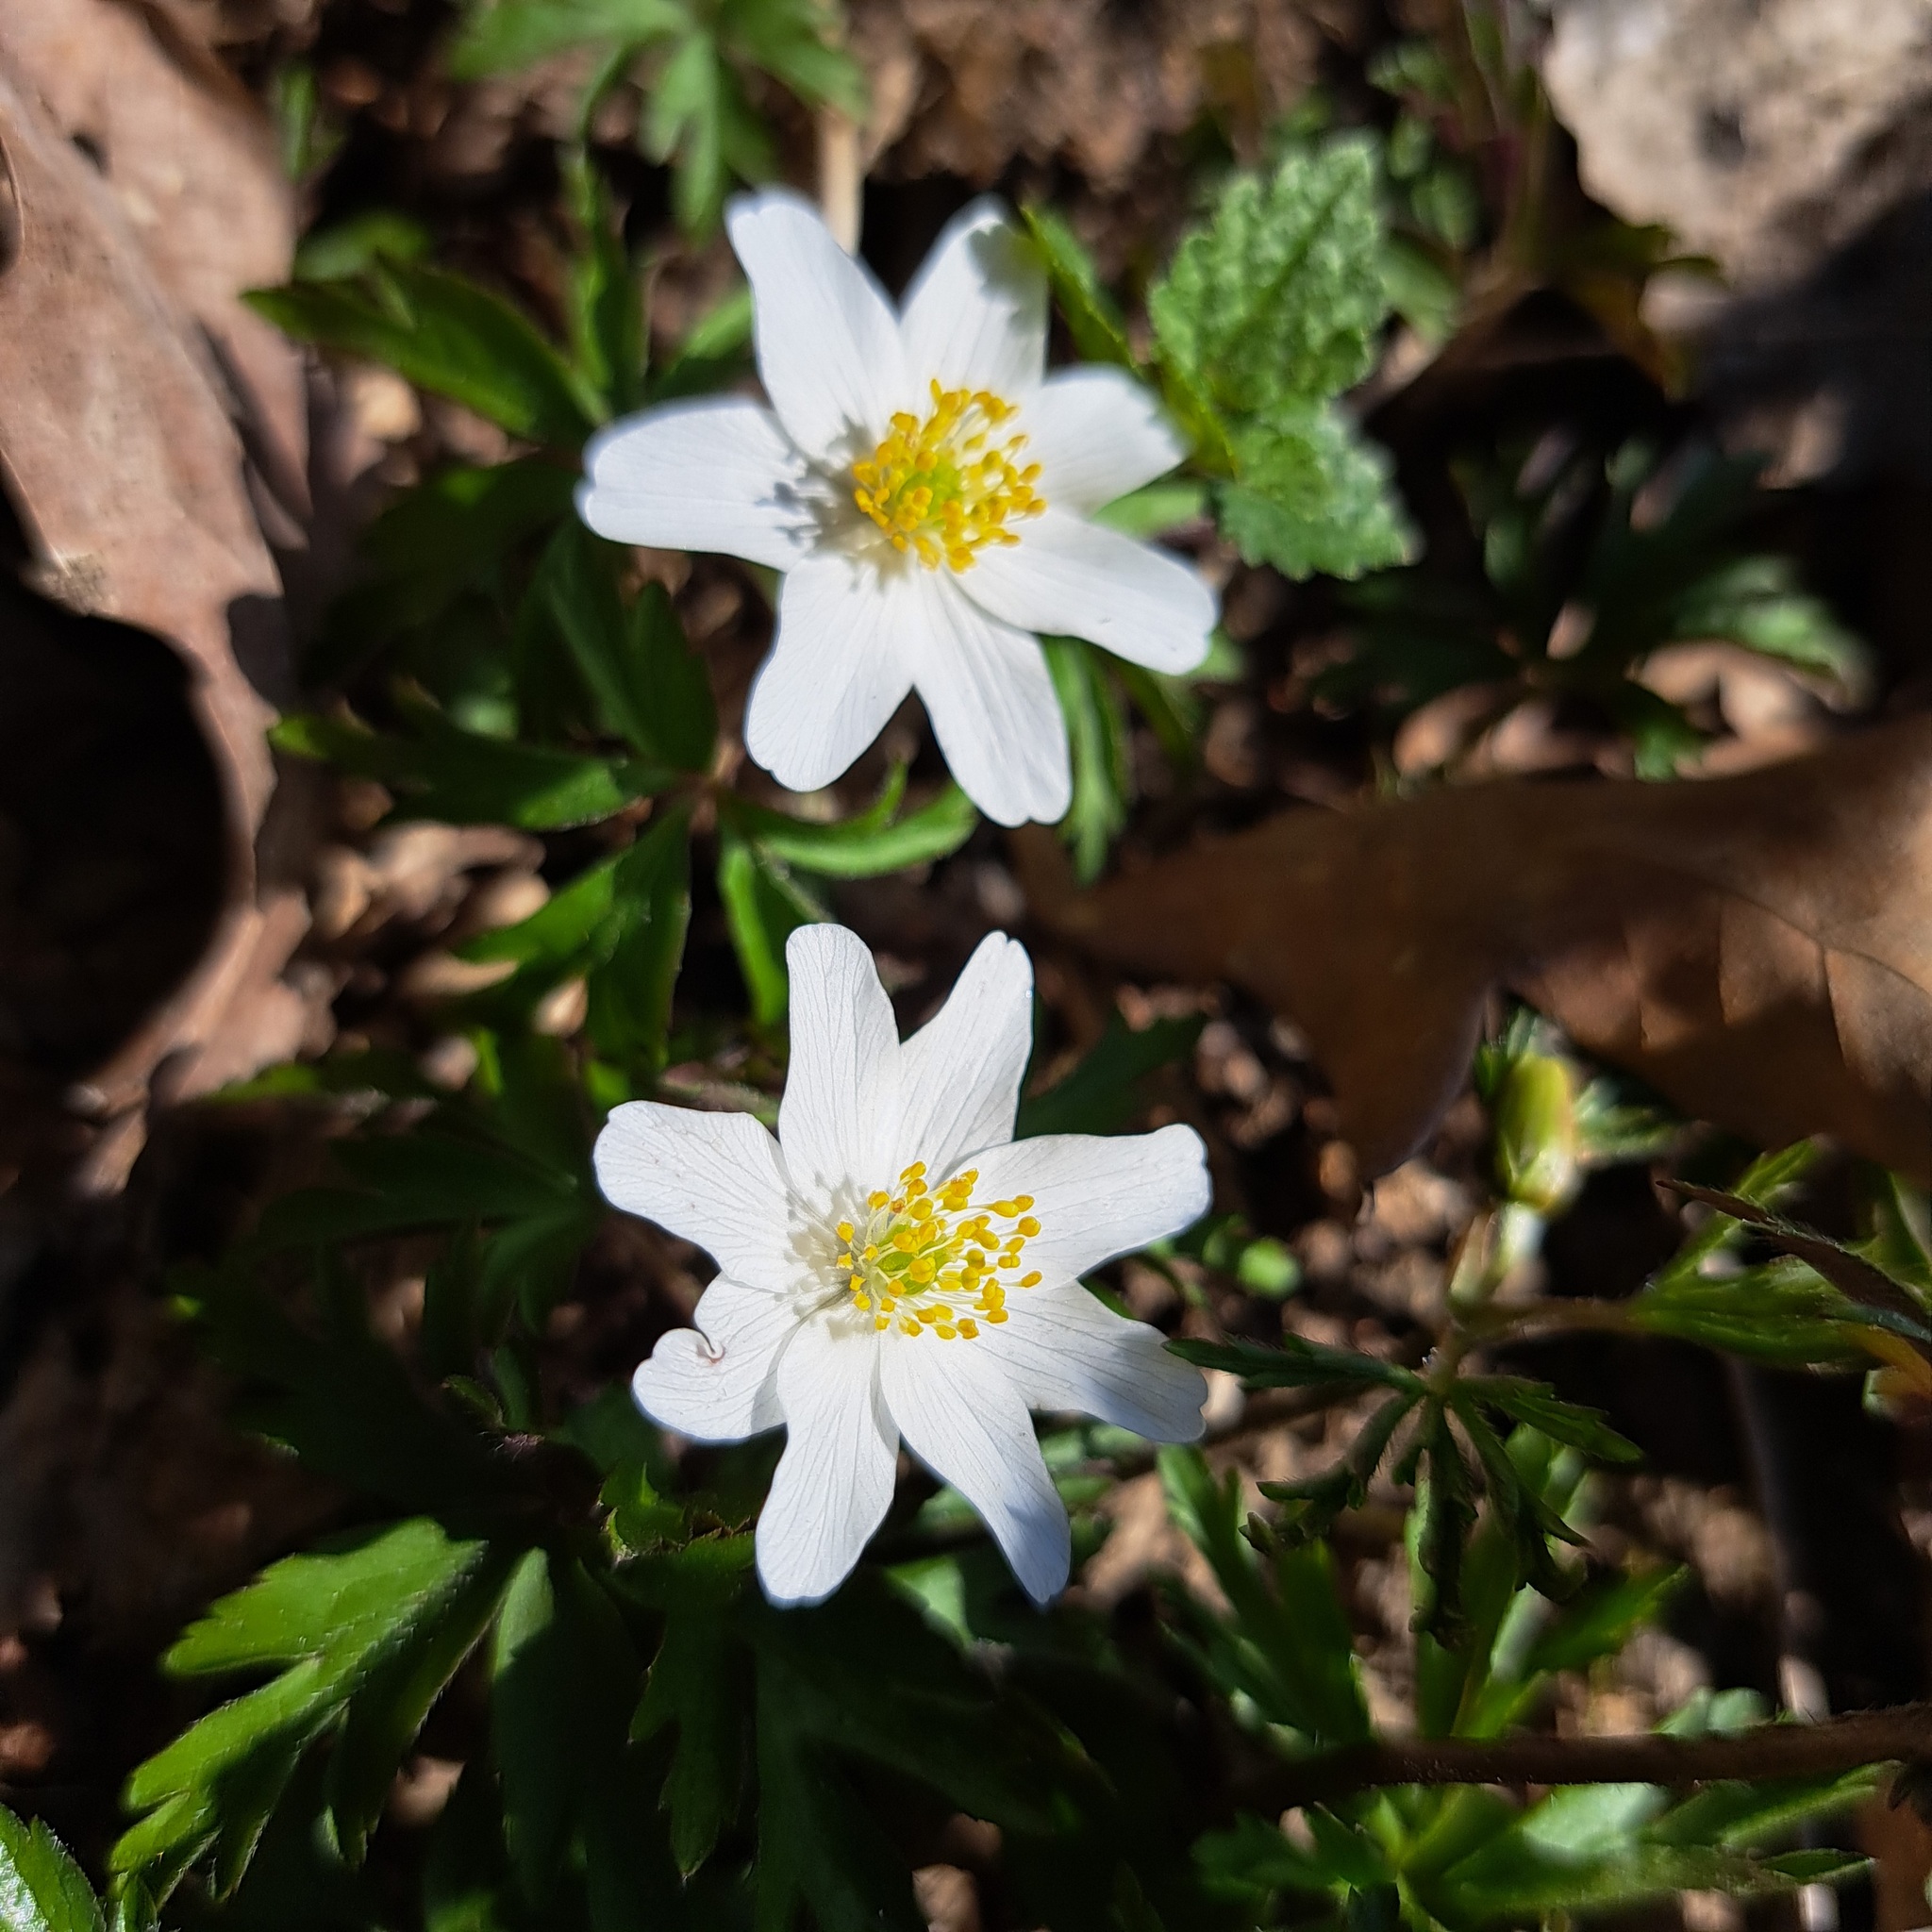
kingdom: Plantae
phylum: Tracheophyta
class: Magnoliopsida
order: Ranunculales
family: Ranunculaceae
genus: Anemone
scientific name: Anemone nemorosa
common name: Wood anemone
